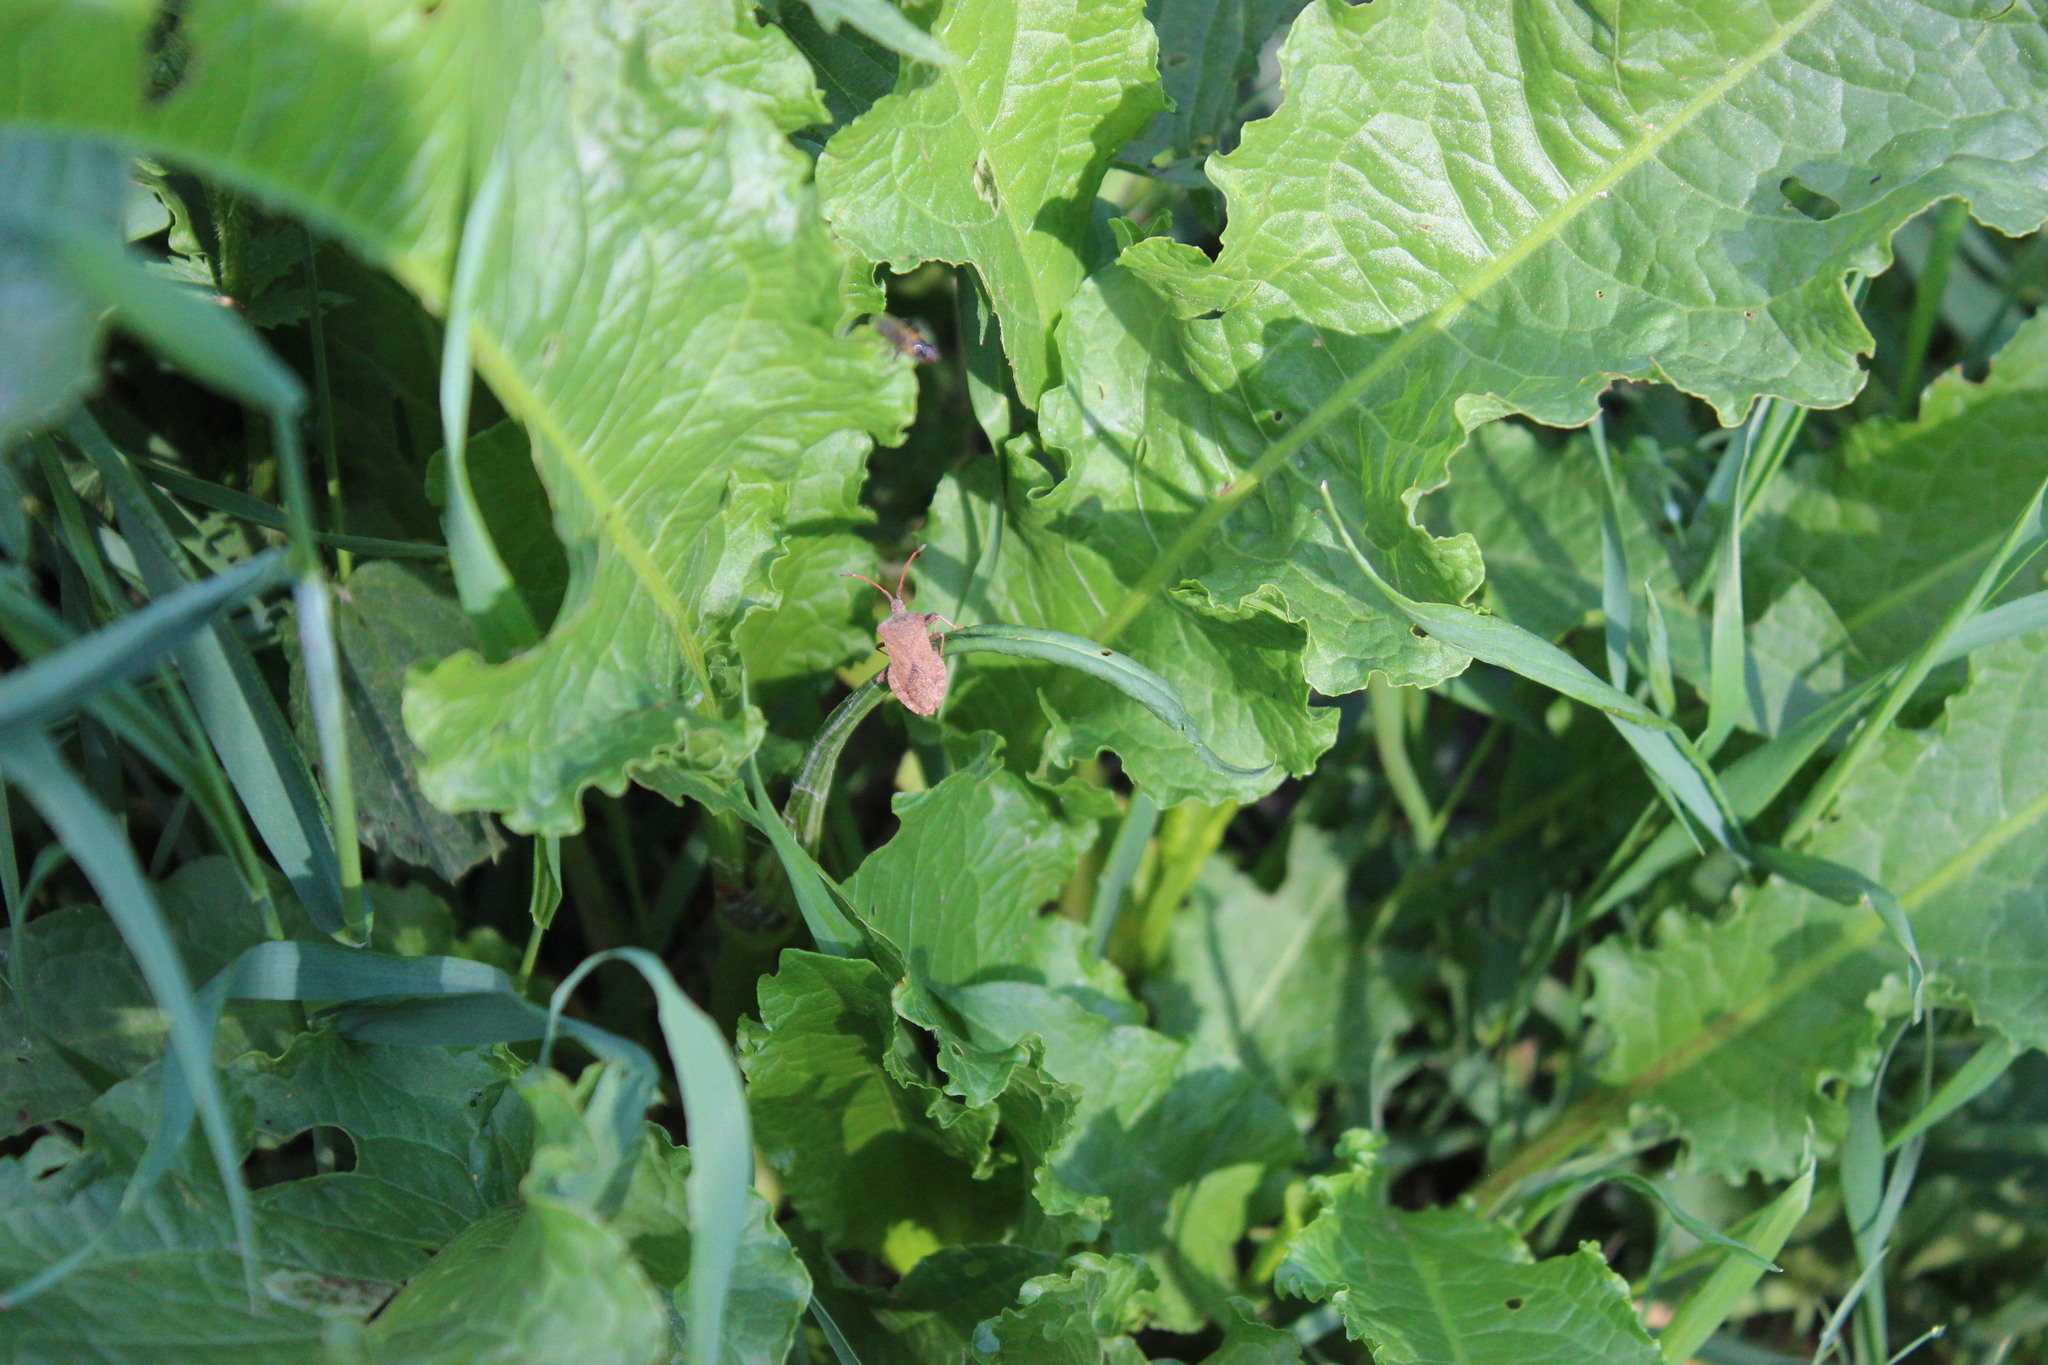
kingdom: Animalia
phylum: Arthropoda
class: Insecta
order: Hemiptera
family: Coreidae
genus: Coreus
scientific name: Coreus marginatus
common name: Dock bug
